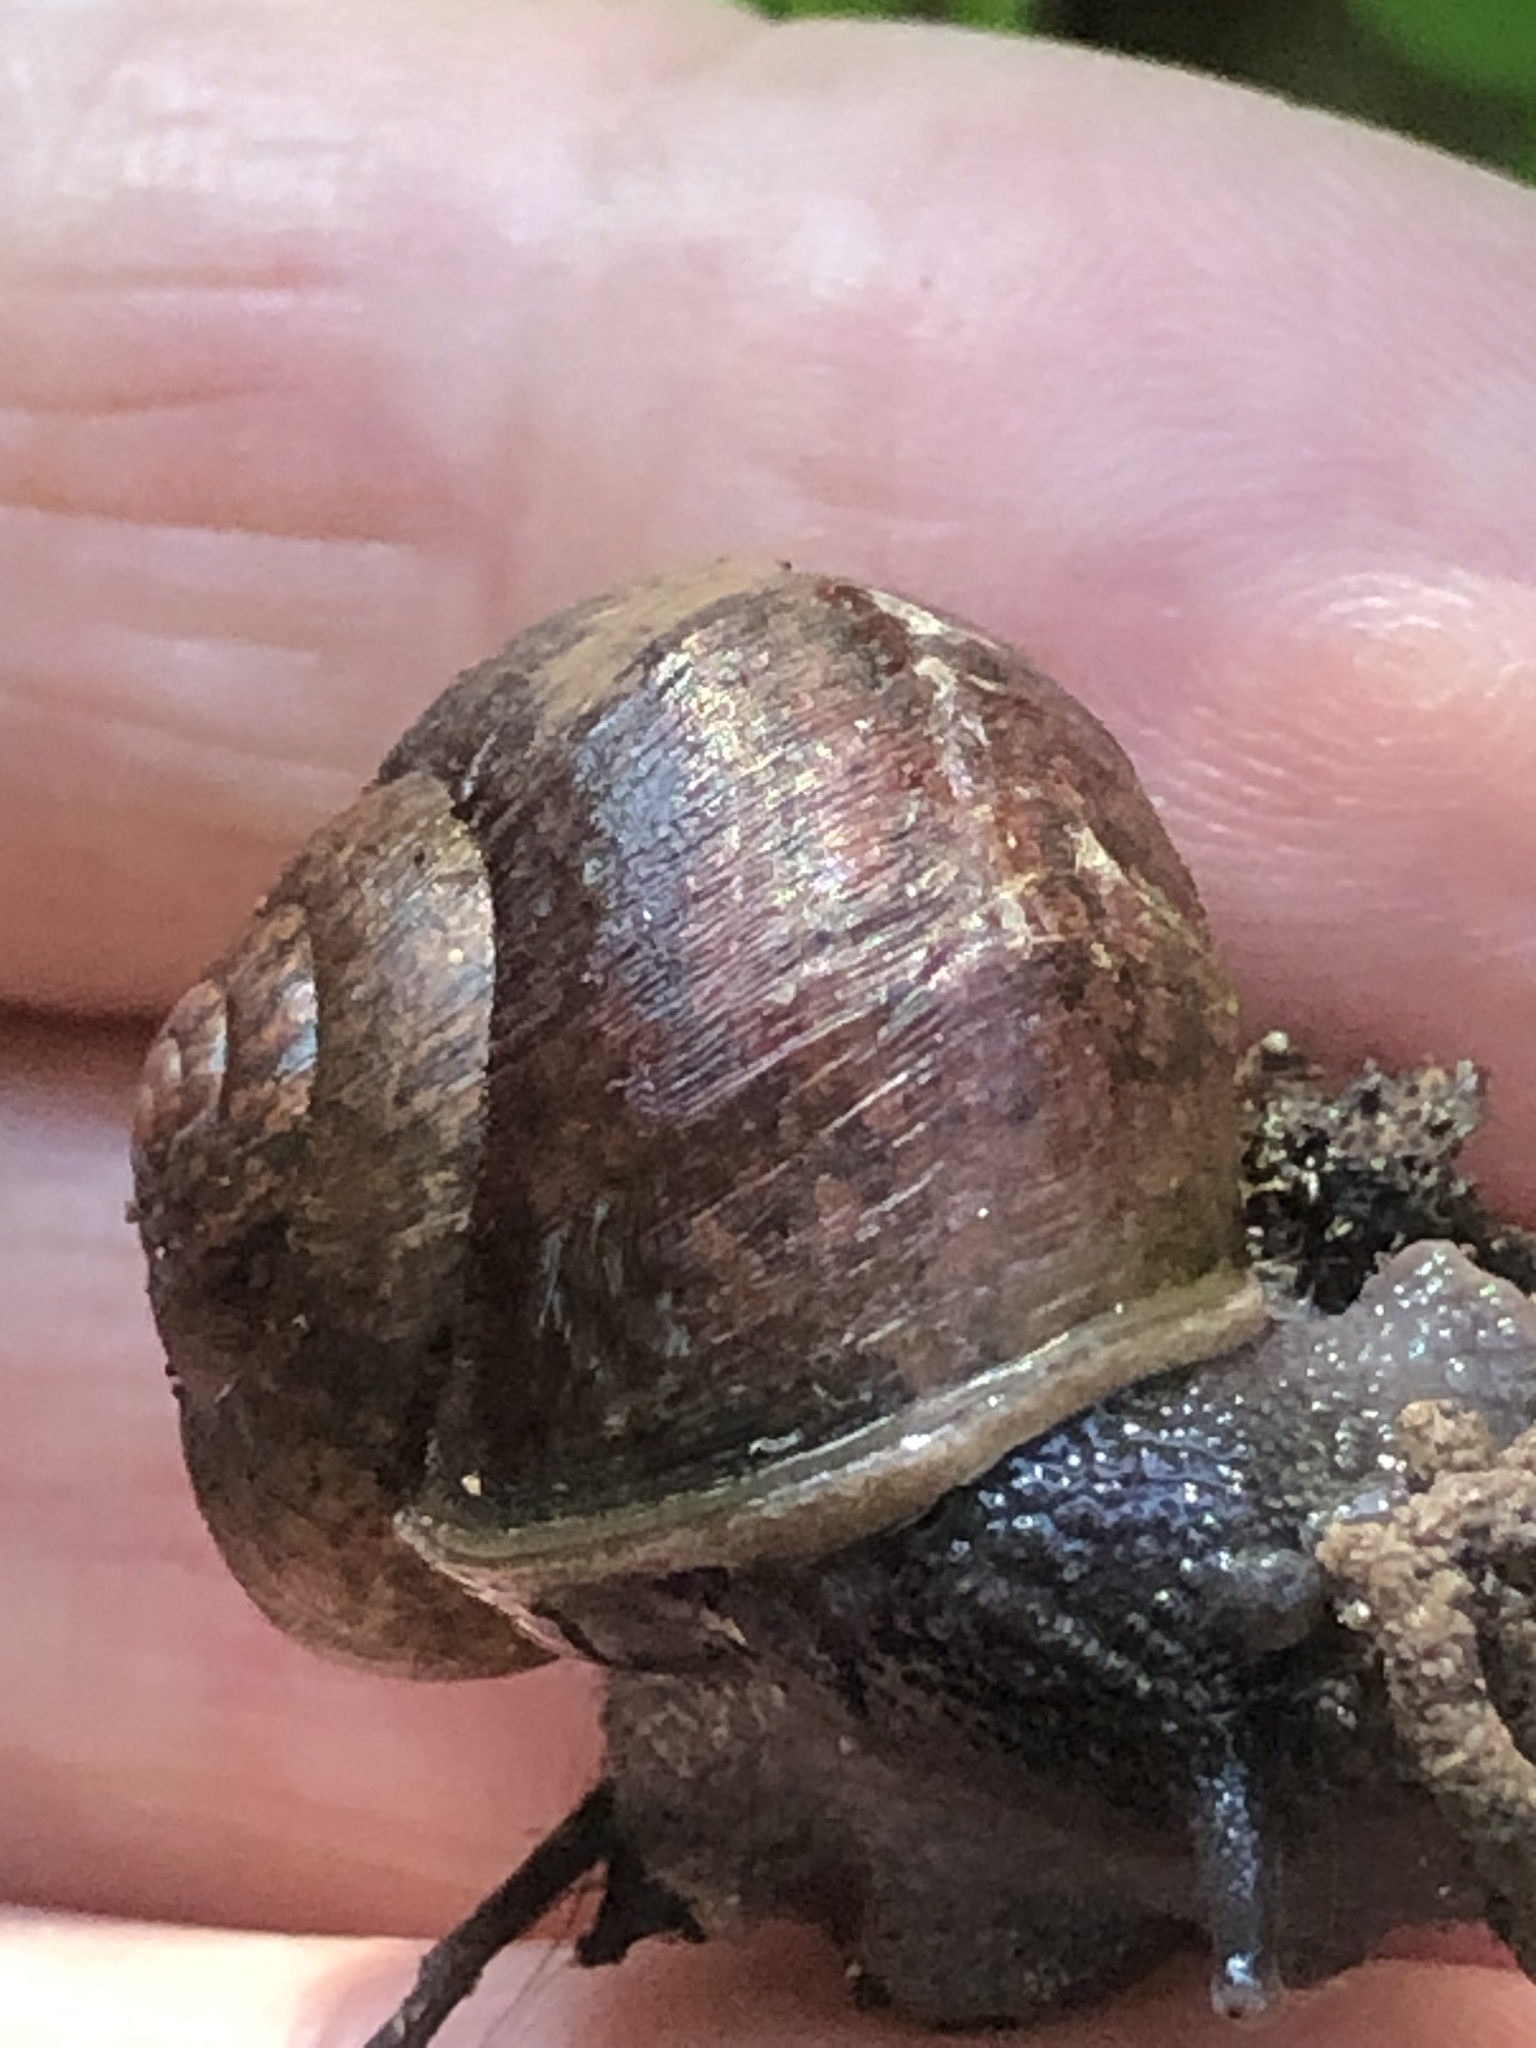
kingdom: Animalia
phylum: Mollusca
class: Gastropoda
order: Stylommatophora
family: Xanthonychidae
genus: Helminthoglypta
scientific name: Helminthoglypta nickliniana
